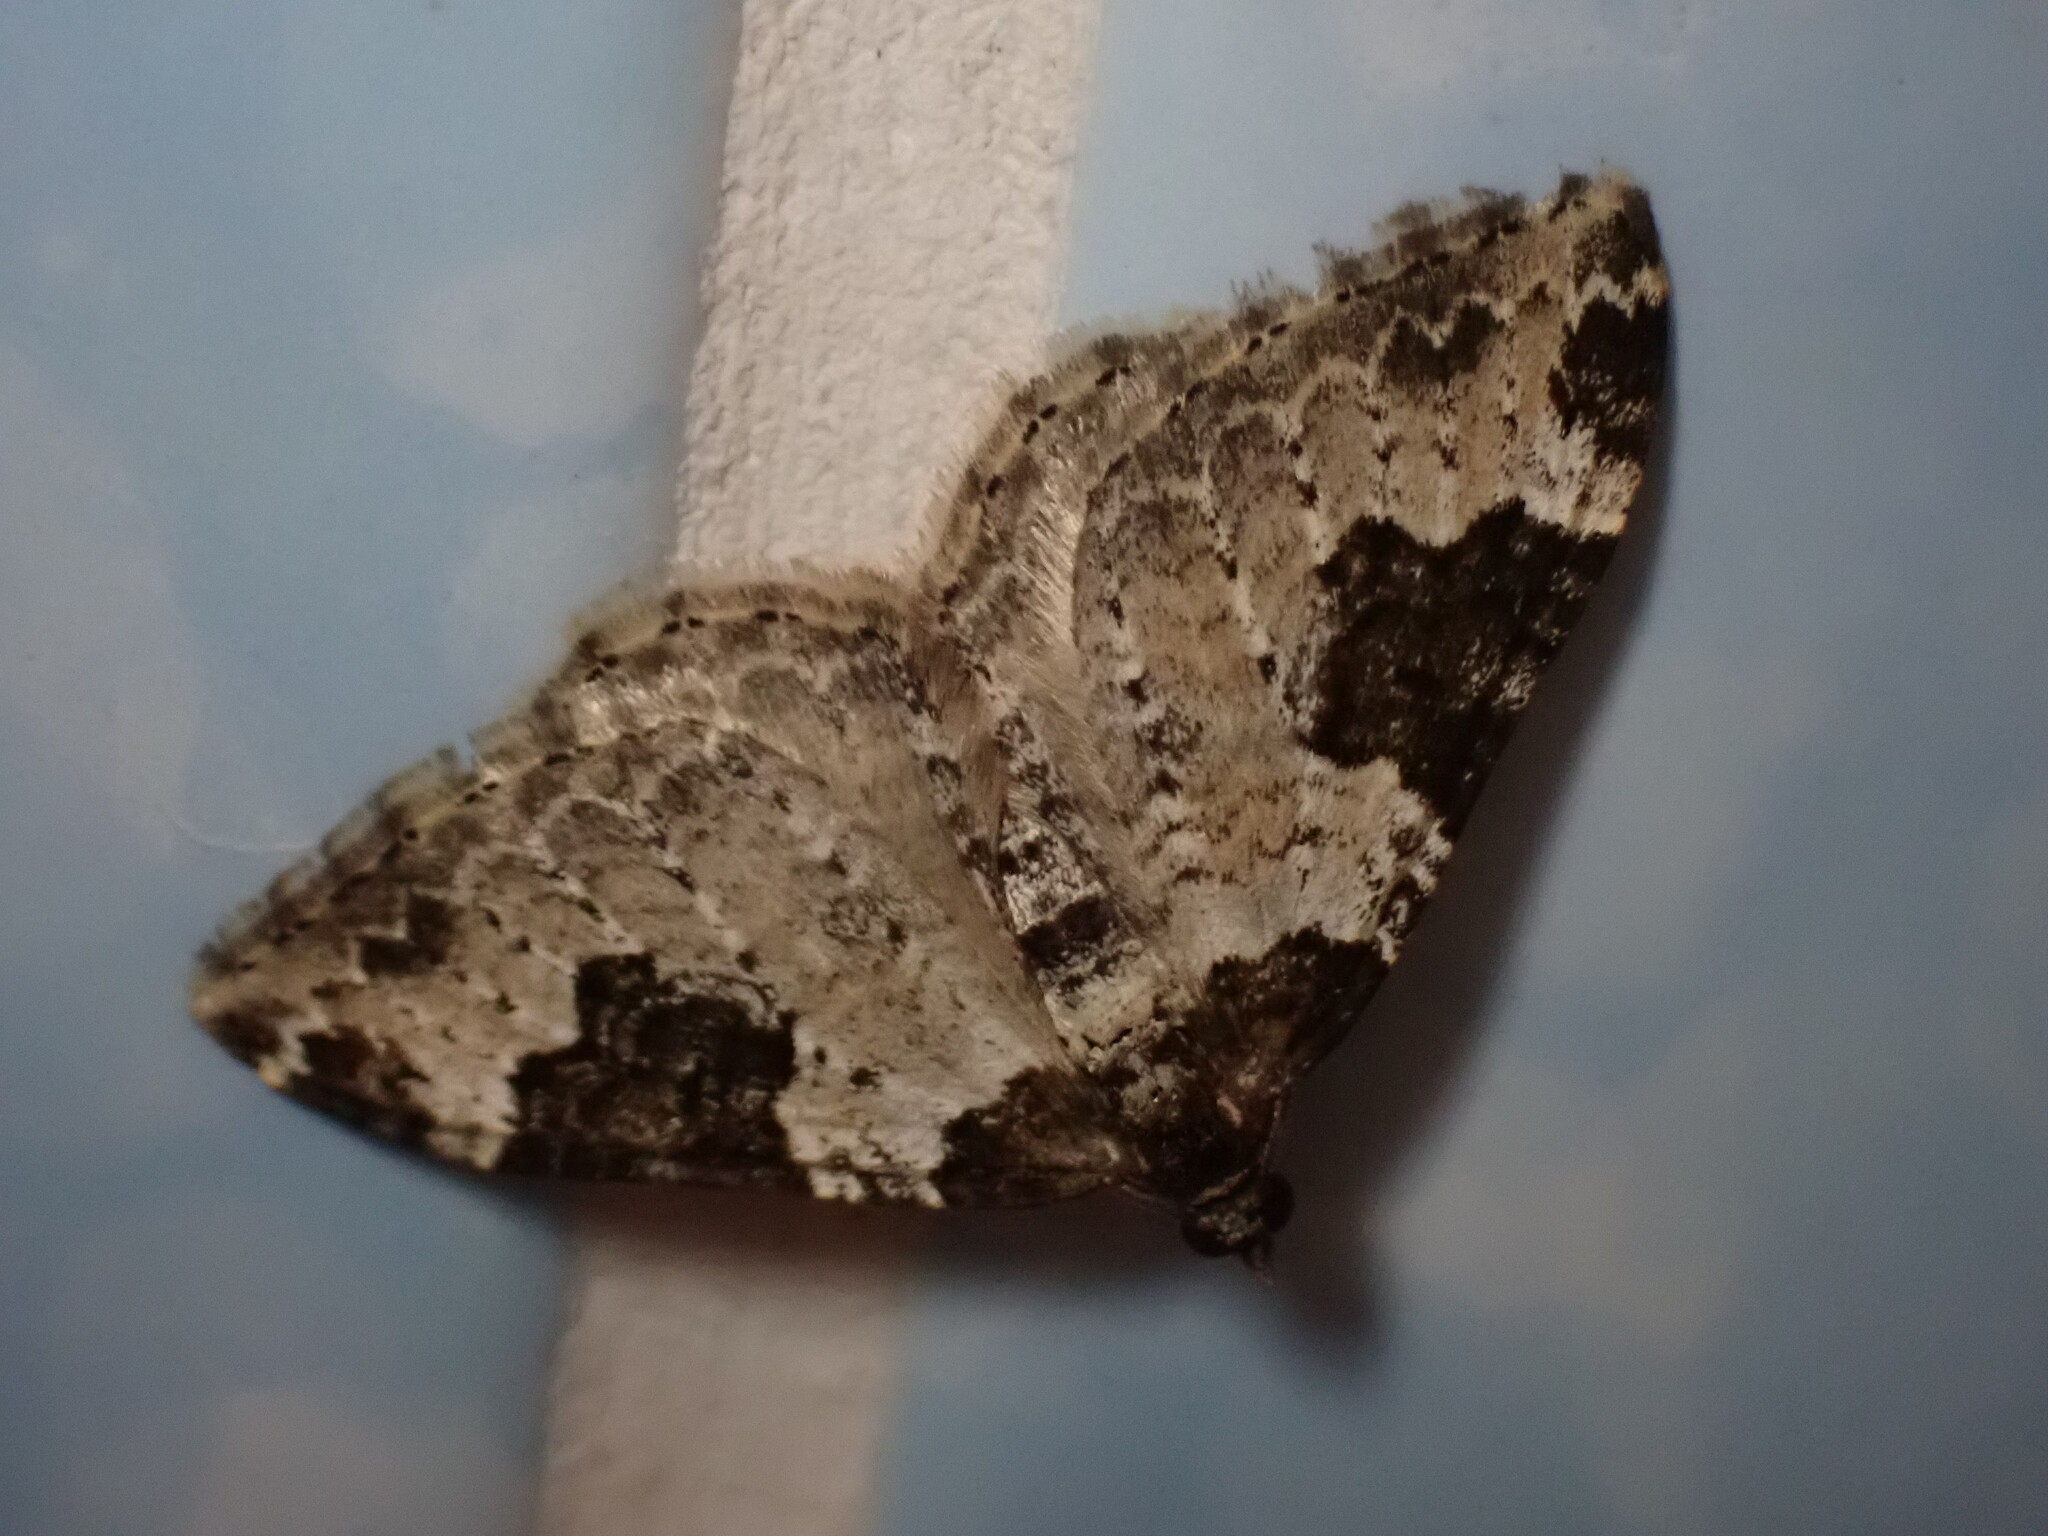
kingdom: Animalia
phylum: Arthropoda
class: Insecta
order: Lepidoptera
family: Geometridae
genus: Xanthorhoe
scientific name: Xanthorhoe fluctuata
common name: Garden carpet
